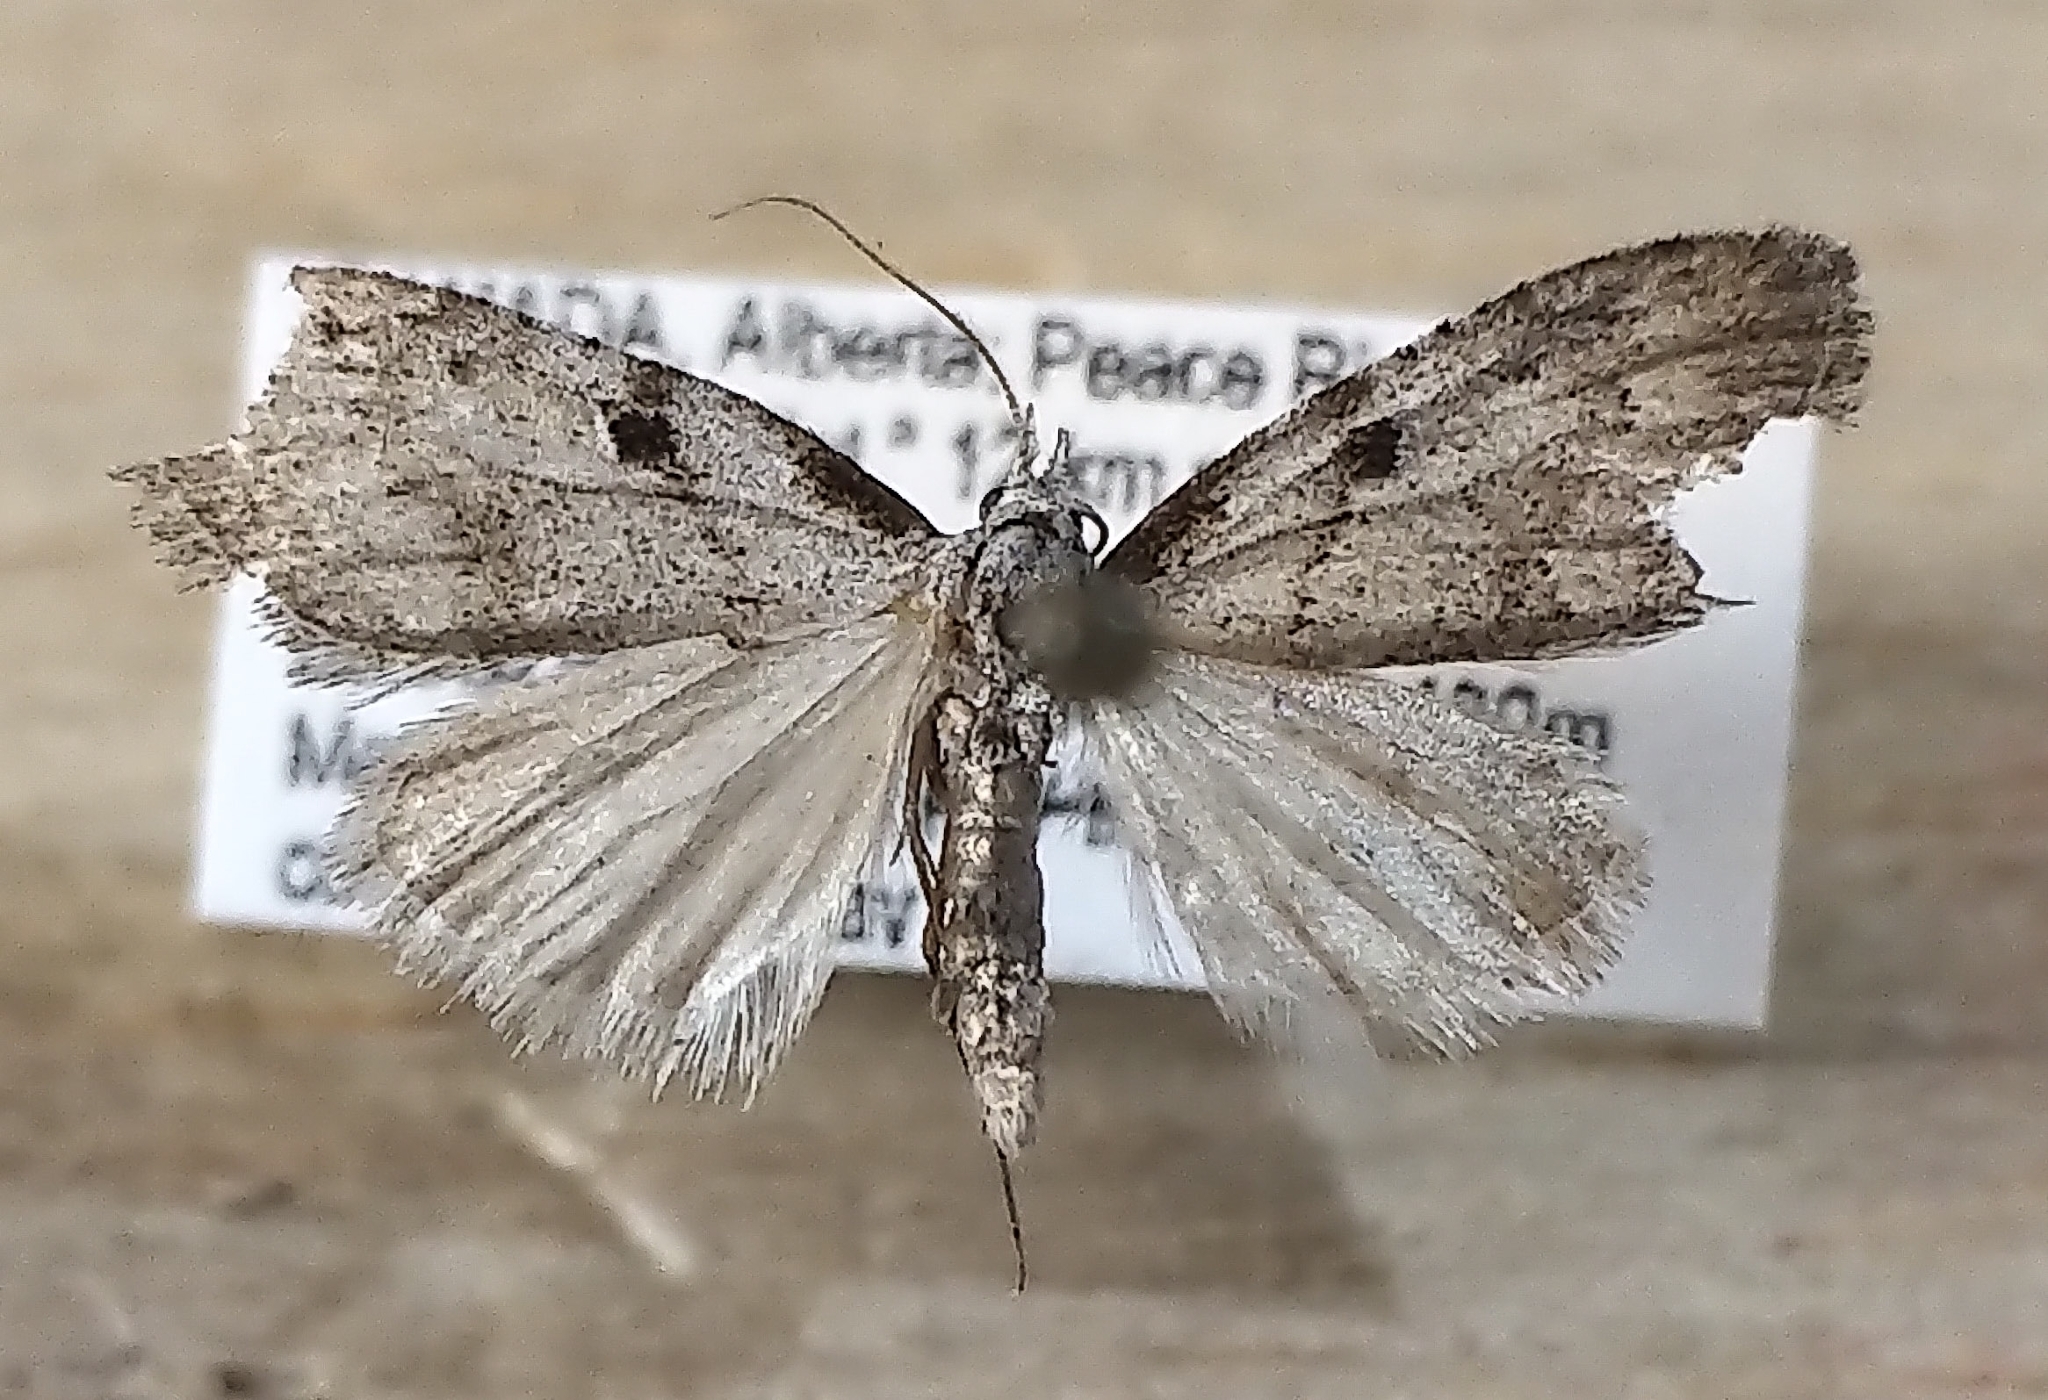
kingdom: Animalia
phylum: Arthropoda
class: Insecta
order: Lepidoptera
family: Nolidae
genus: Nola
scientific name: Nola minna
